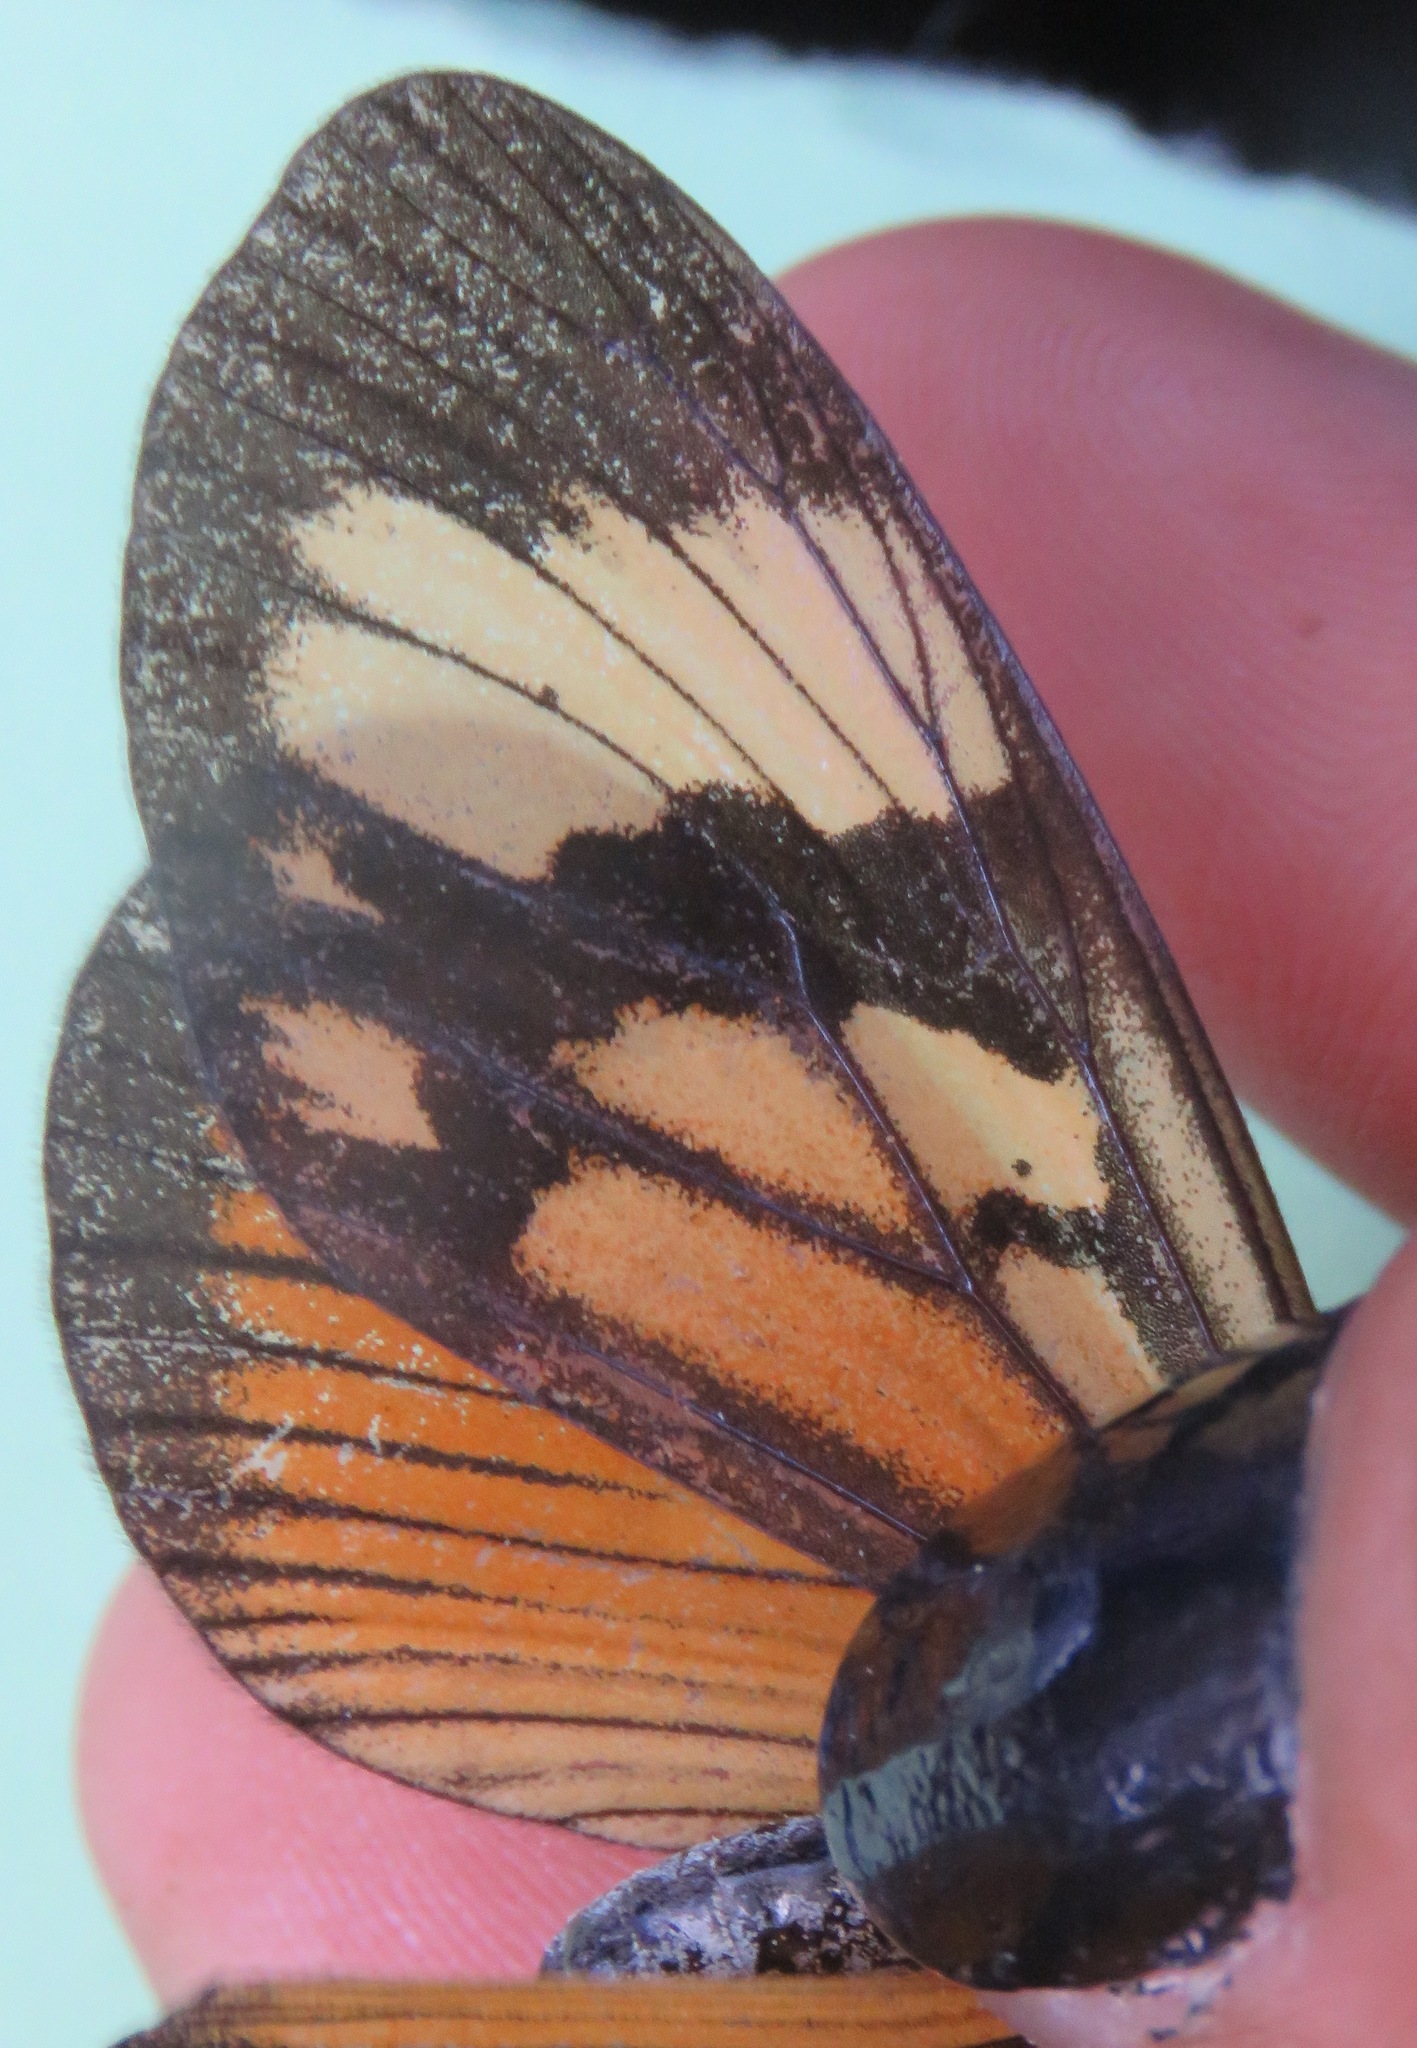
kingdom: Animalia
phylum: Arthropoda
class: Insecta
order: Lepidoptera
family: Nymphalidae
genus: Actinote
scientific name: Actinote anteas
